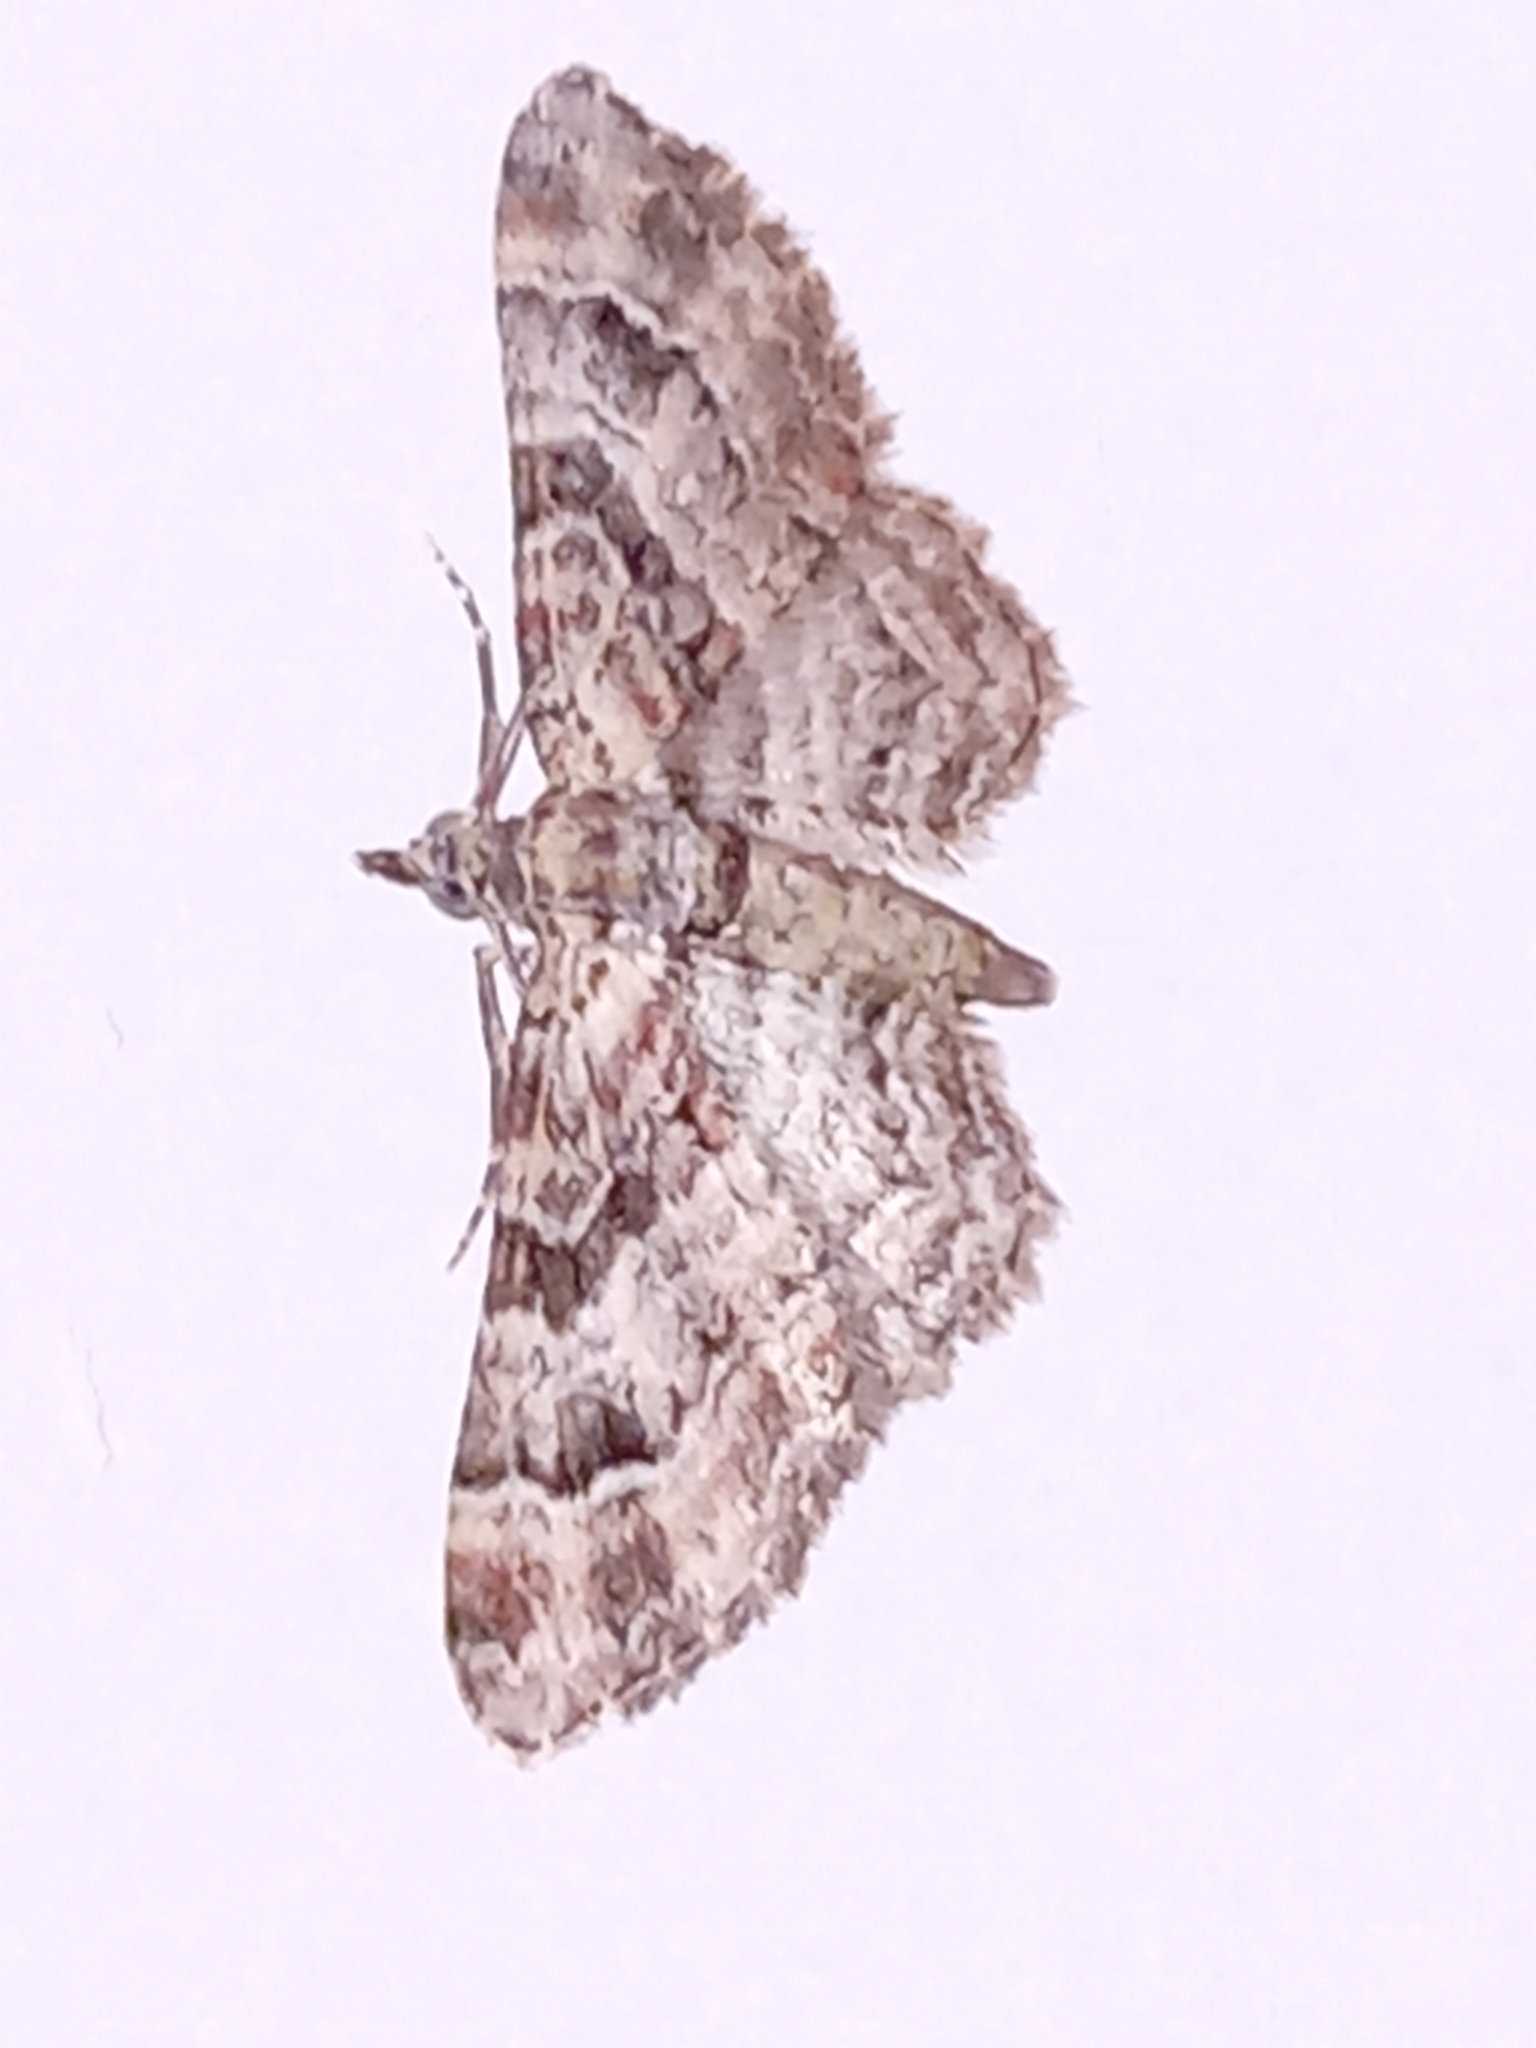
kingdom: Animalia
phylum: Arthropoda
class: Insecta
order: Lepidoptera
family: Geometridae
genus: Gymnoscelis
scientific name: Gymnoscelis rufifasciata
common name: Double-striped pug
